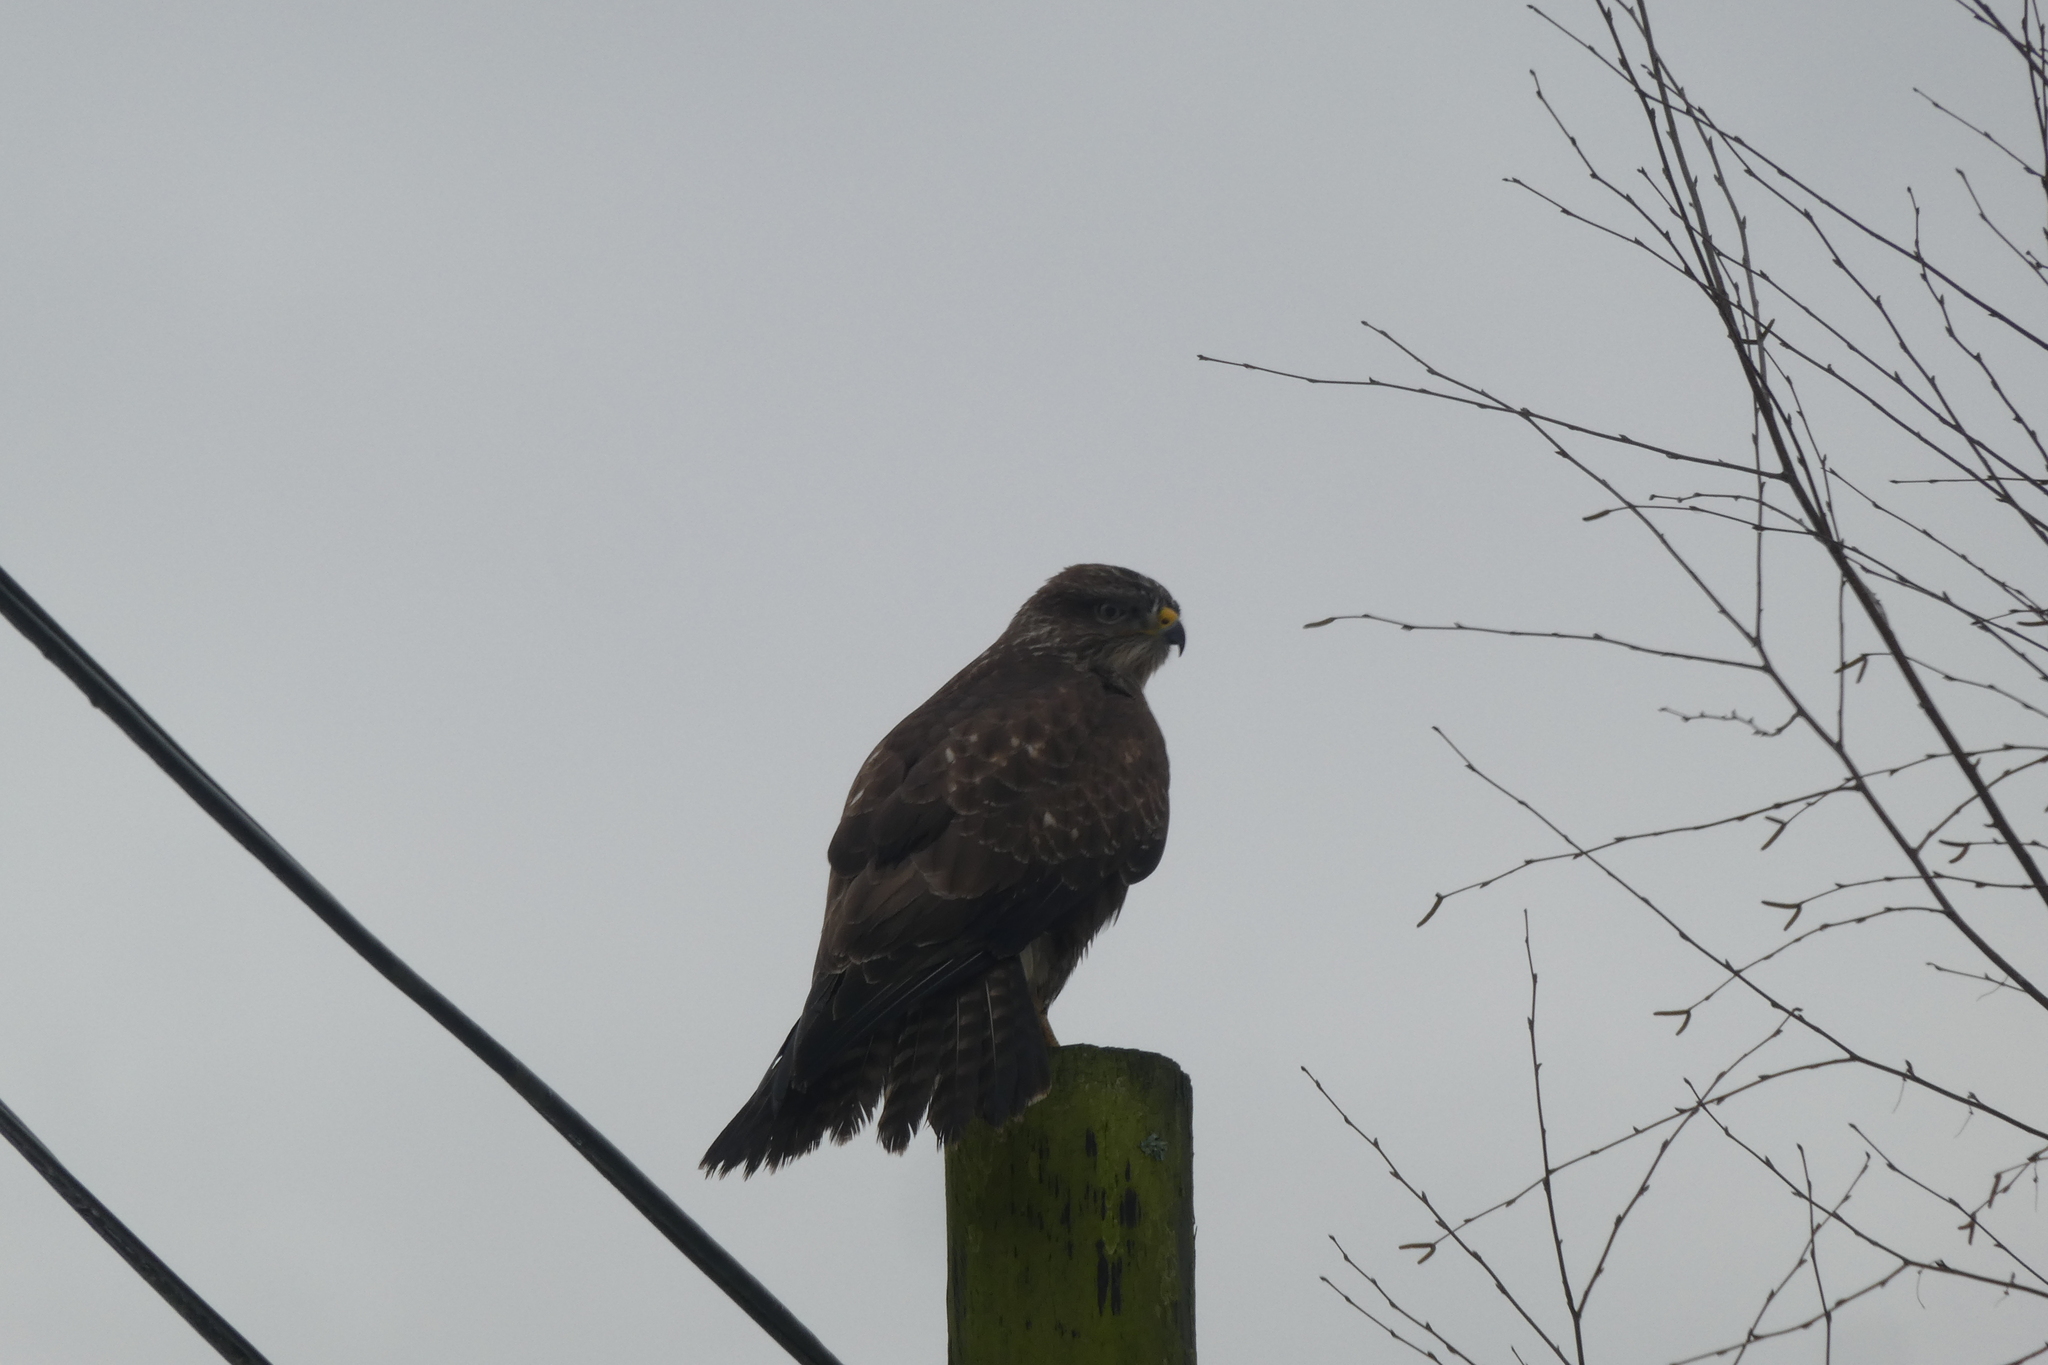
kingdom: Animalia
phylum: Chordata
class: Aves
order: Accipitriformes
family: Accipitridae
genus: Buteo
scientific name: Buteo buteo
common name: Common buzzard
